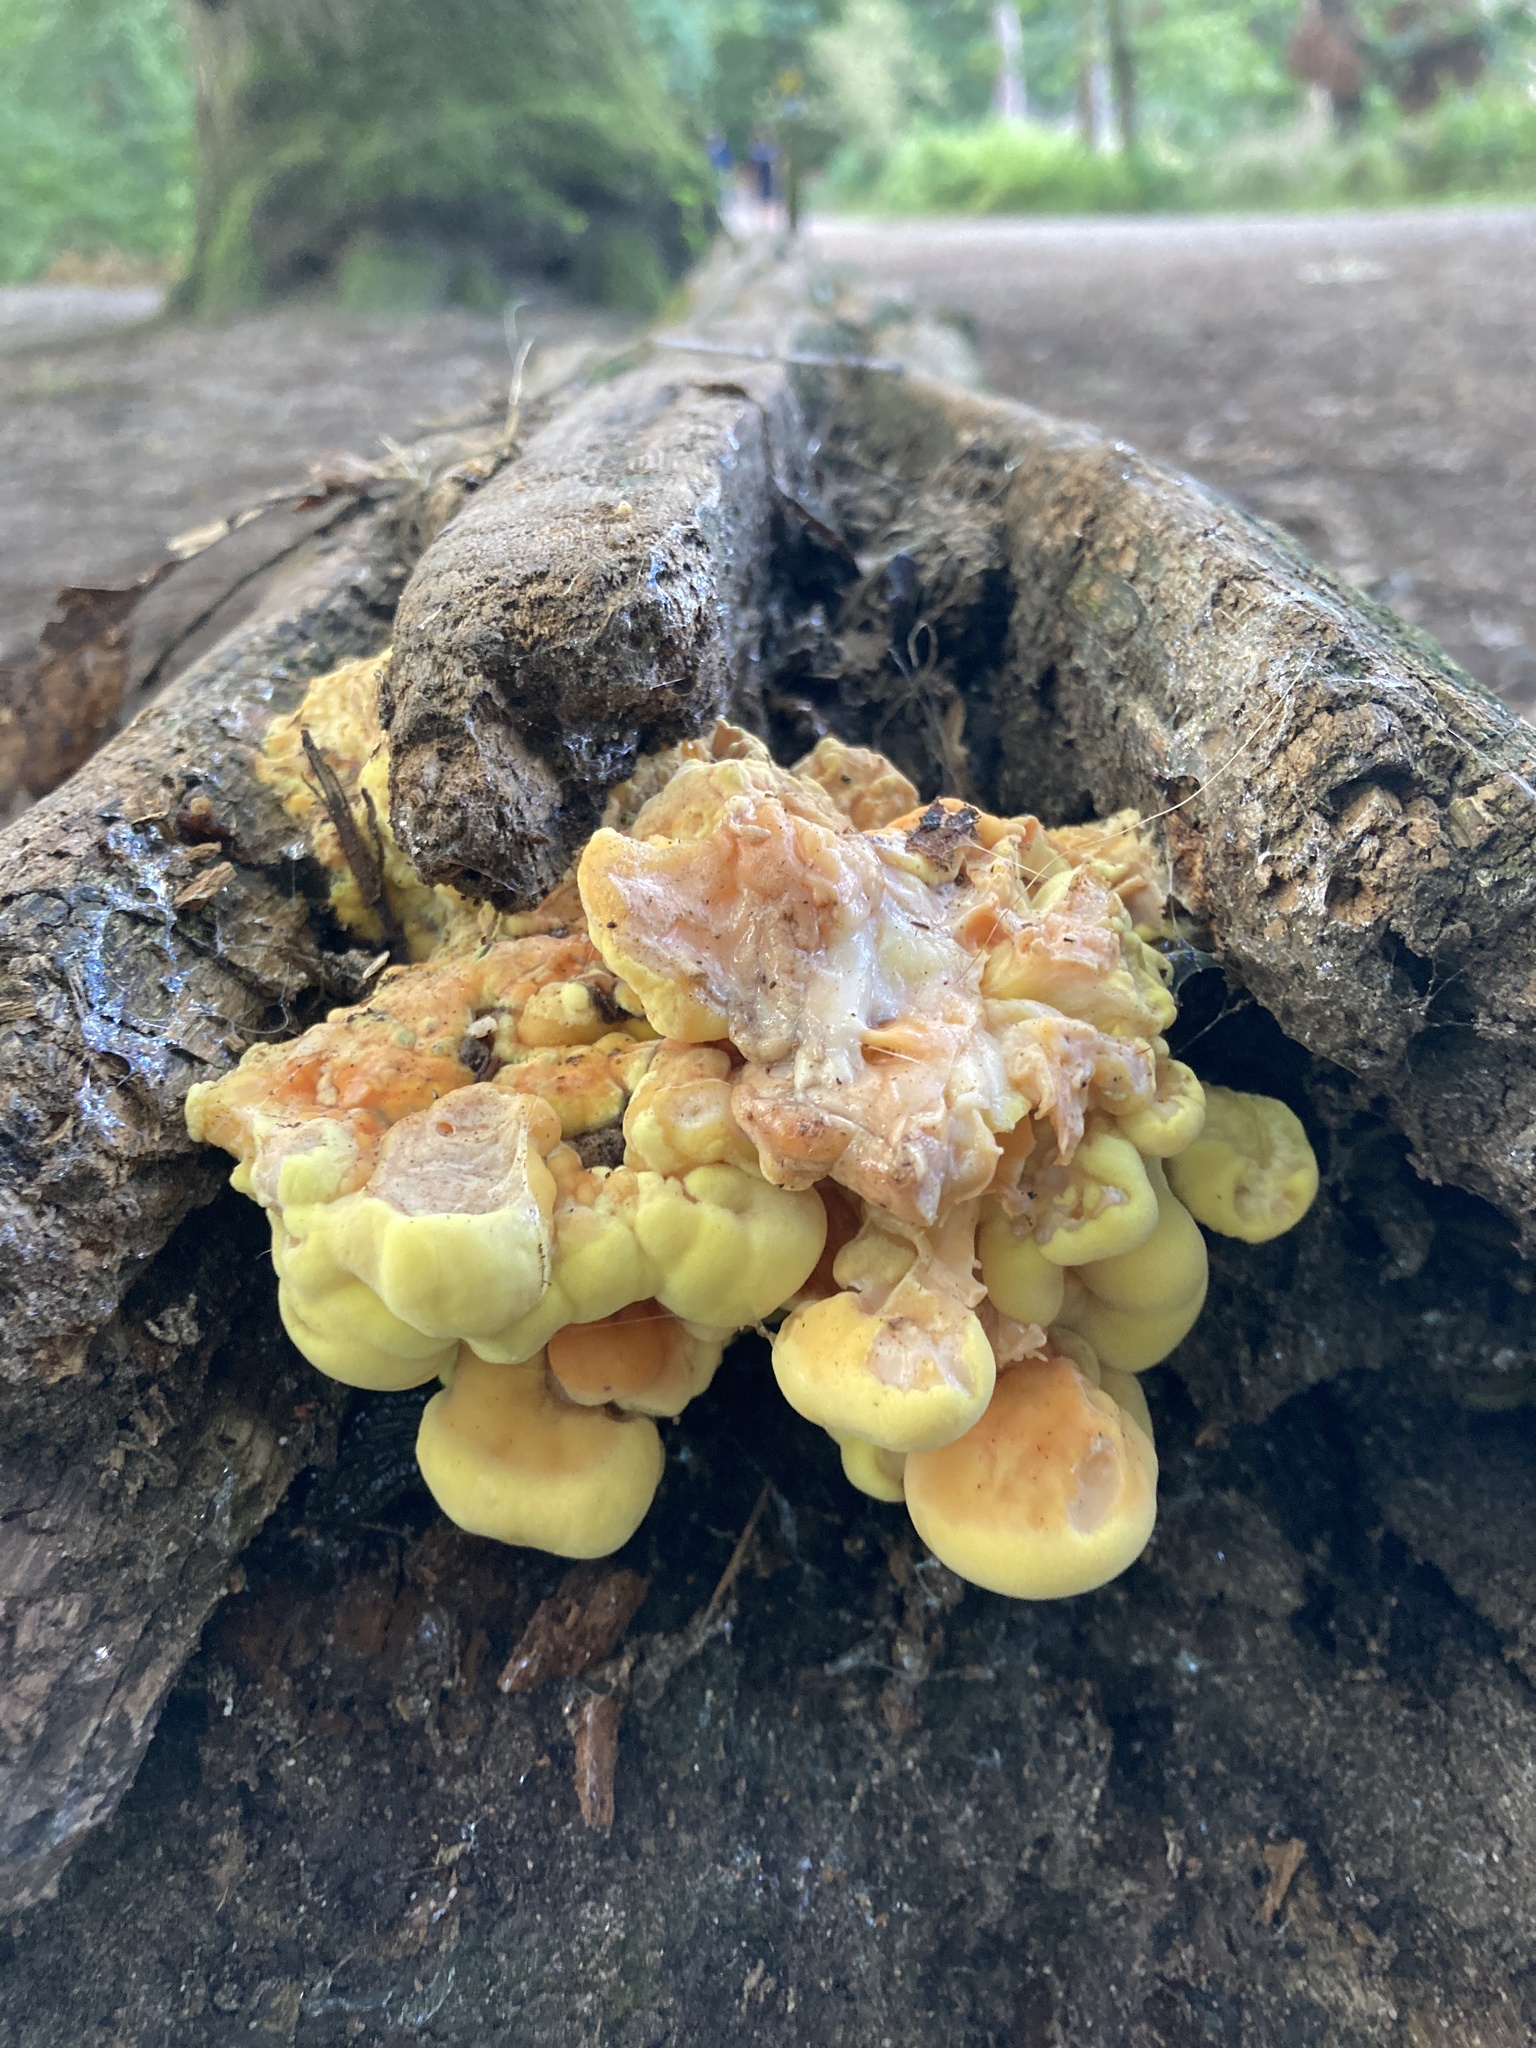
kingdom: Fungi
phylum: Basidiomycota
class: Agaricomycetes
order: Polyporales
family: Laetiporaceae
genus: Laetiporus
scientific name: Laetiporus sulphureus
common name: Chicken of the woods
